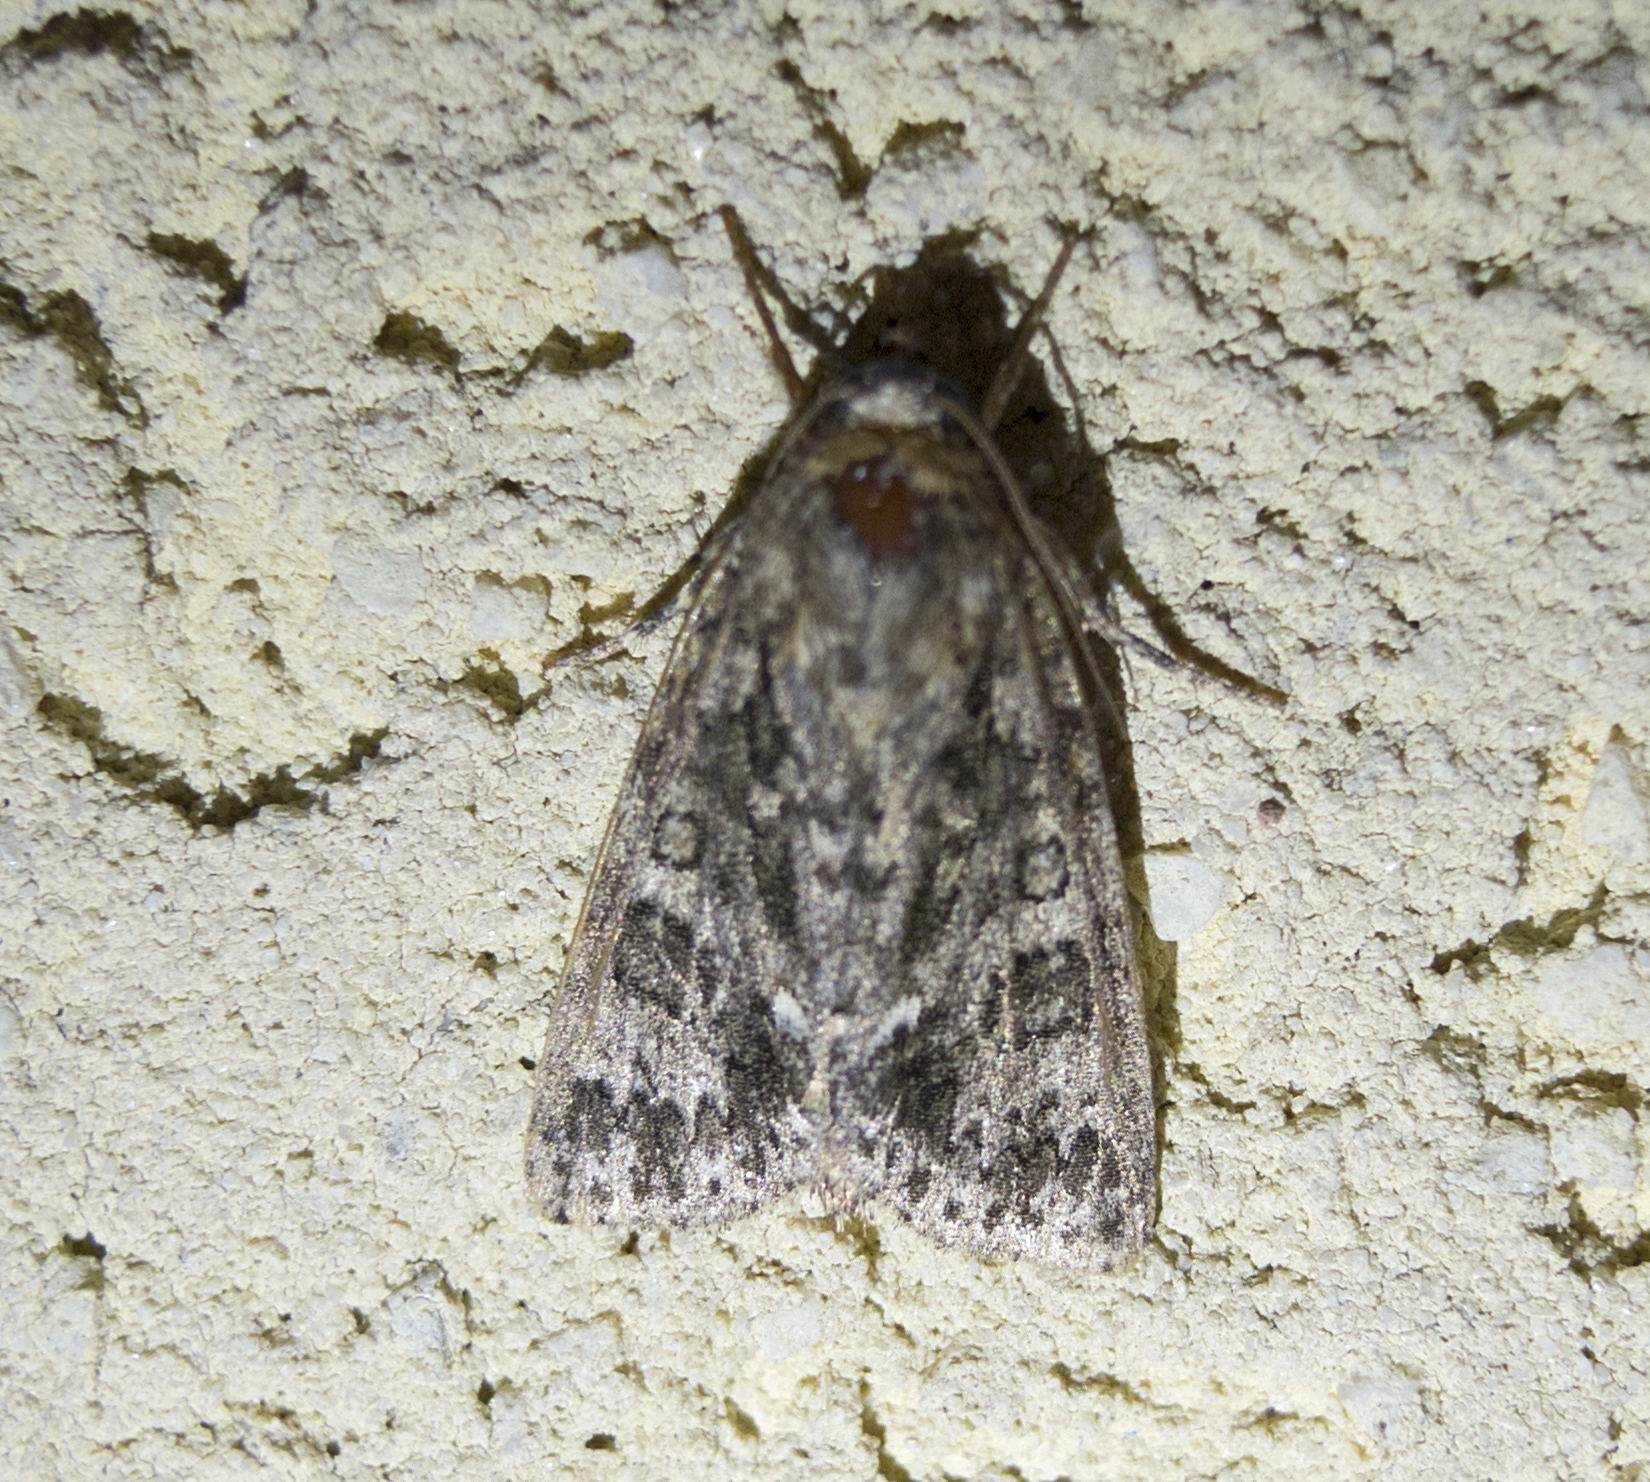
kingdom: Animalia
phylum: Arthropoda
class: Insecta
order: Lepidoptera
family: Noctuidae
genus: Acronicta
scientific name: Acronicta rumicis
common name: Knot grass
